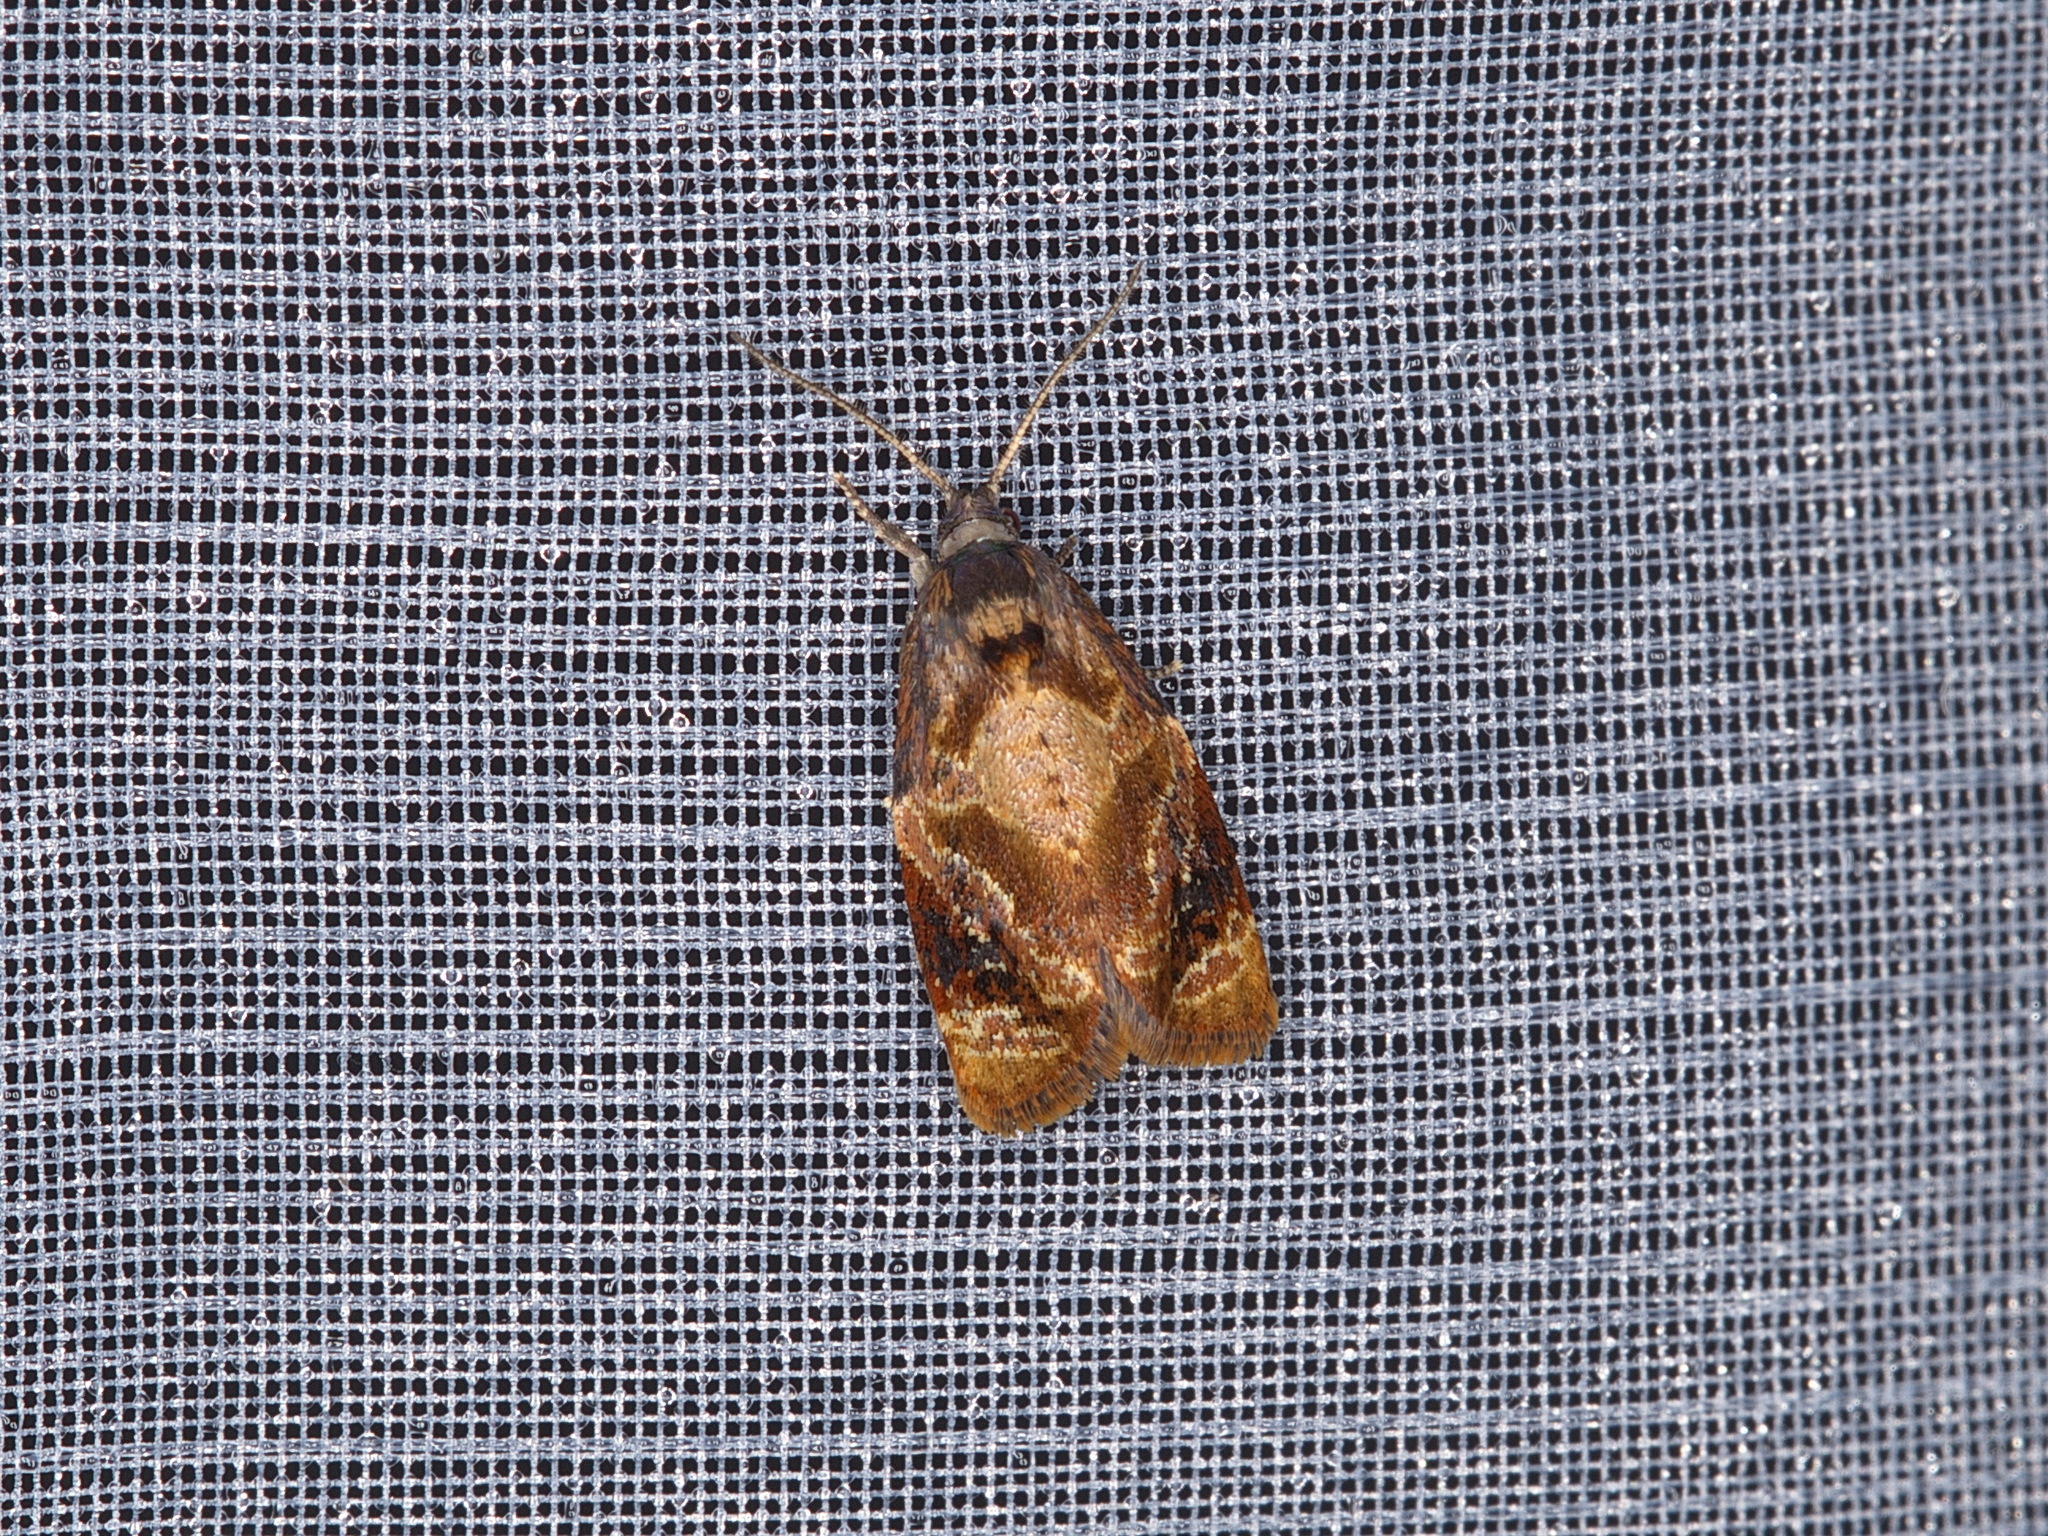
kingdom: Animalia
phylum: Arthropoda
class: Insecta
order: Lepidoptera
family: Tortricidae
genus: Ditula
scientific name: Ditula angustiorana
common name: Red-barred tortrix
